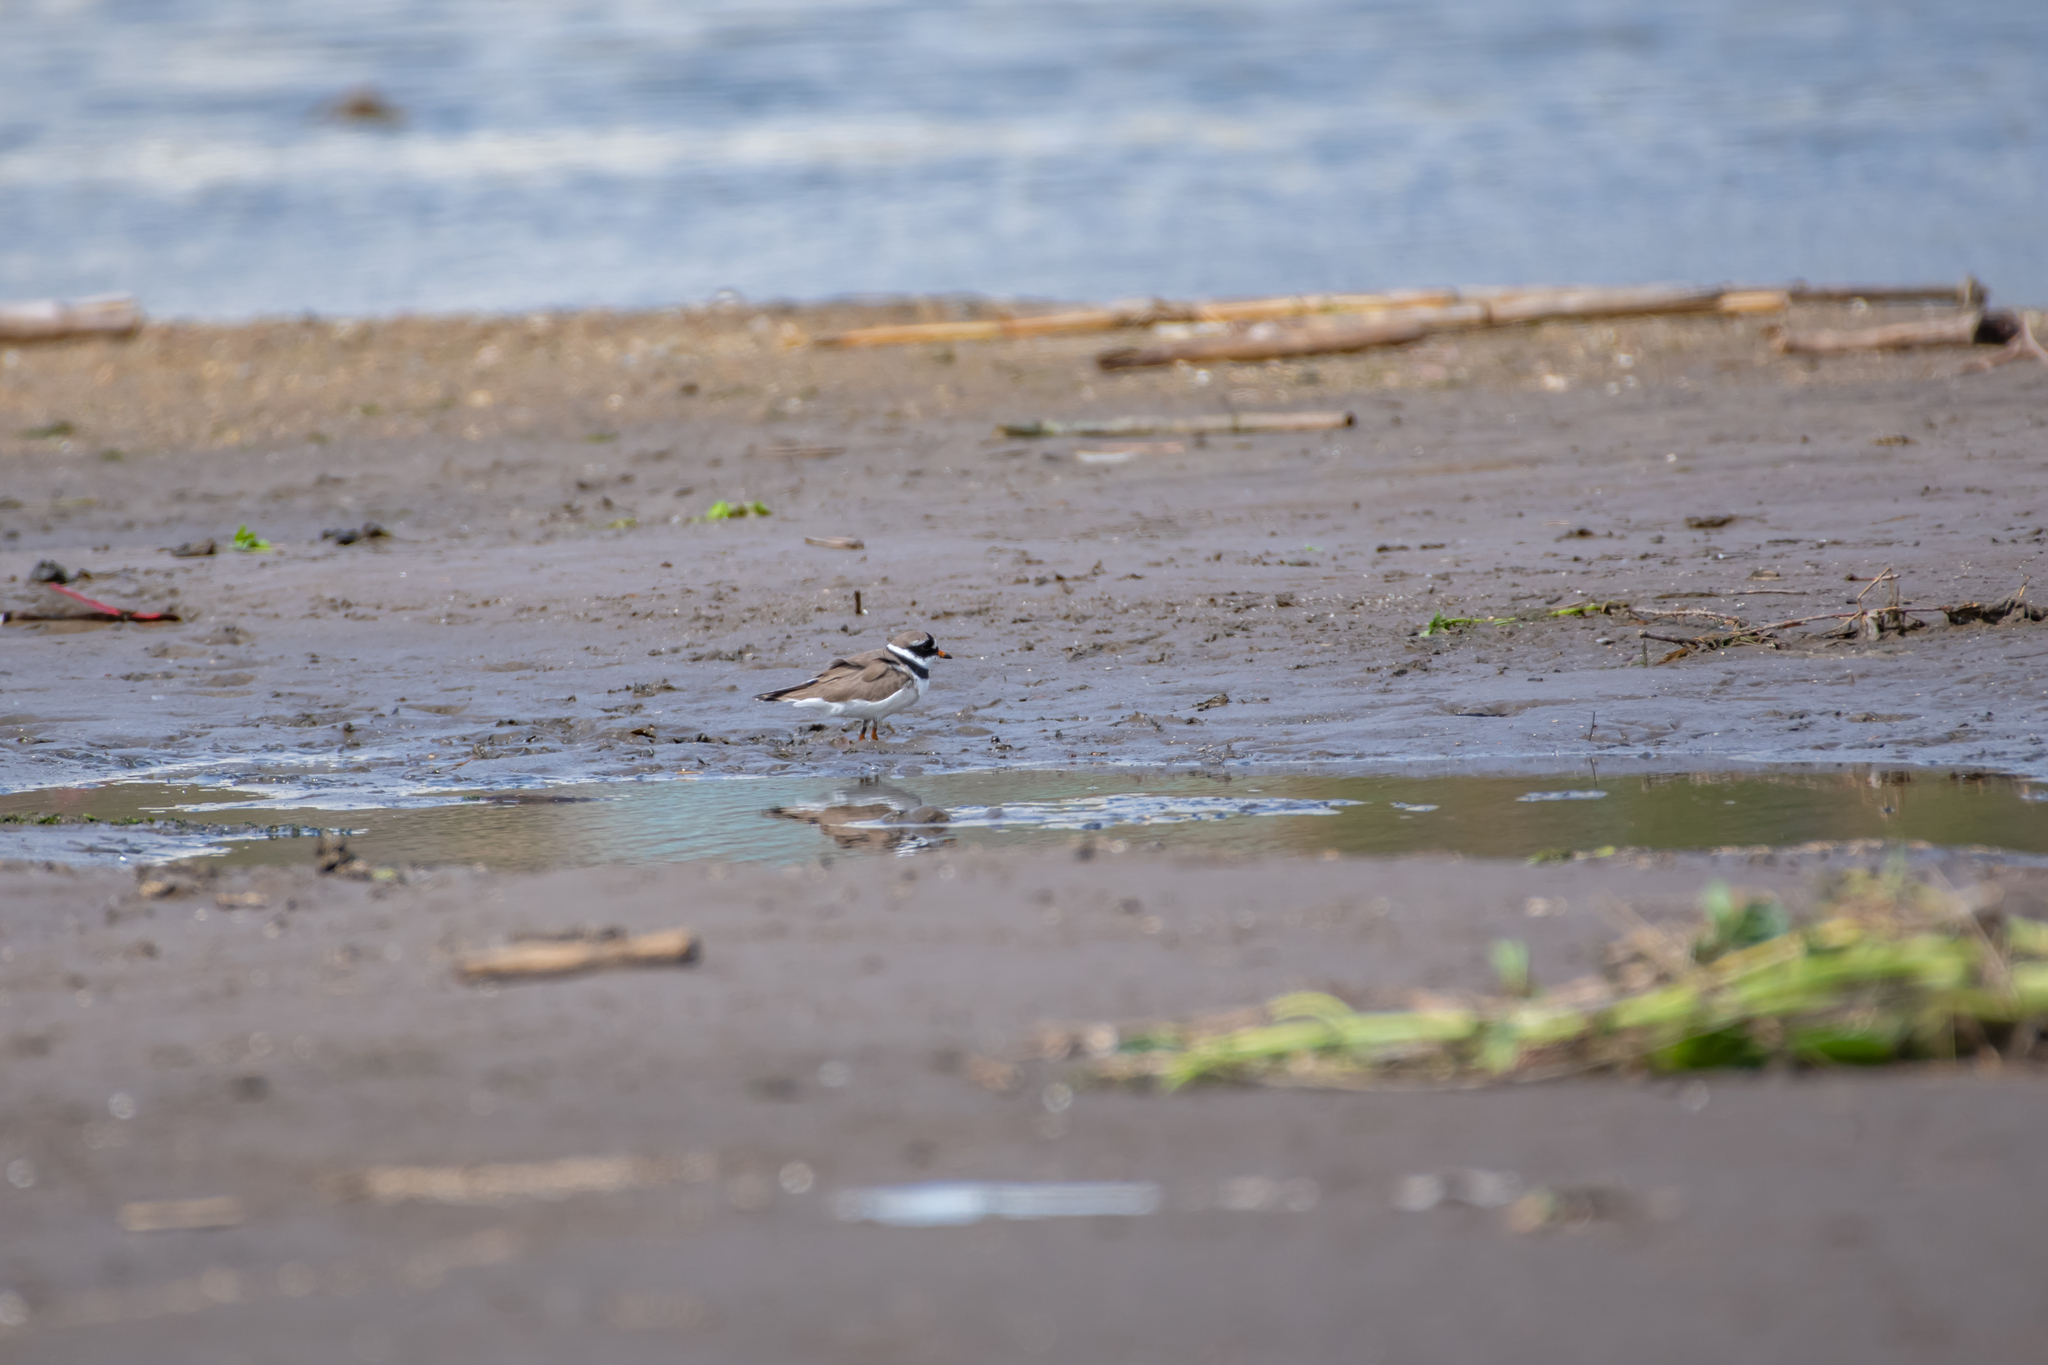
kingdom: Animalia
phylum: Chordata
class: Aves
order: Charadriiformes
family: Charadriidae
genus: Charadrius
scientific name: Charadrius hiaticula
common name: Common ringed plover
